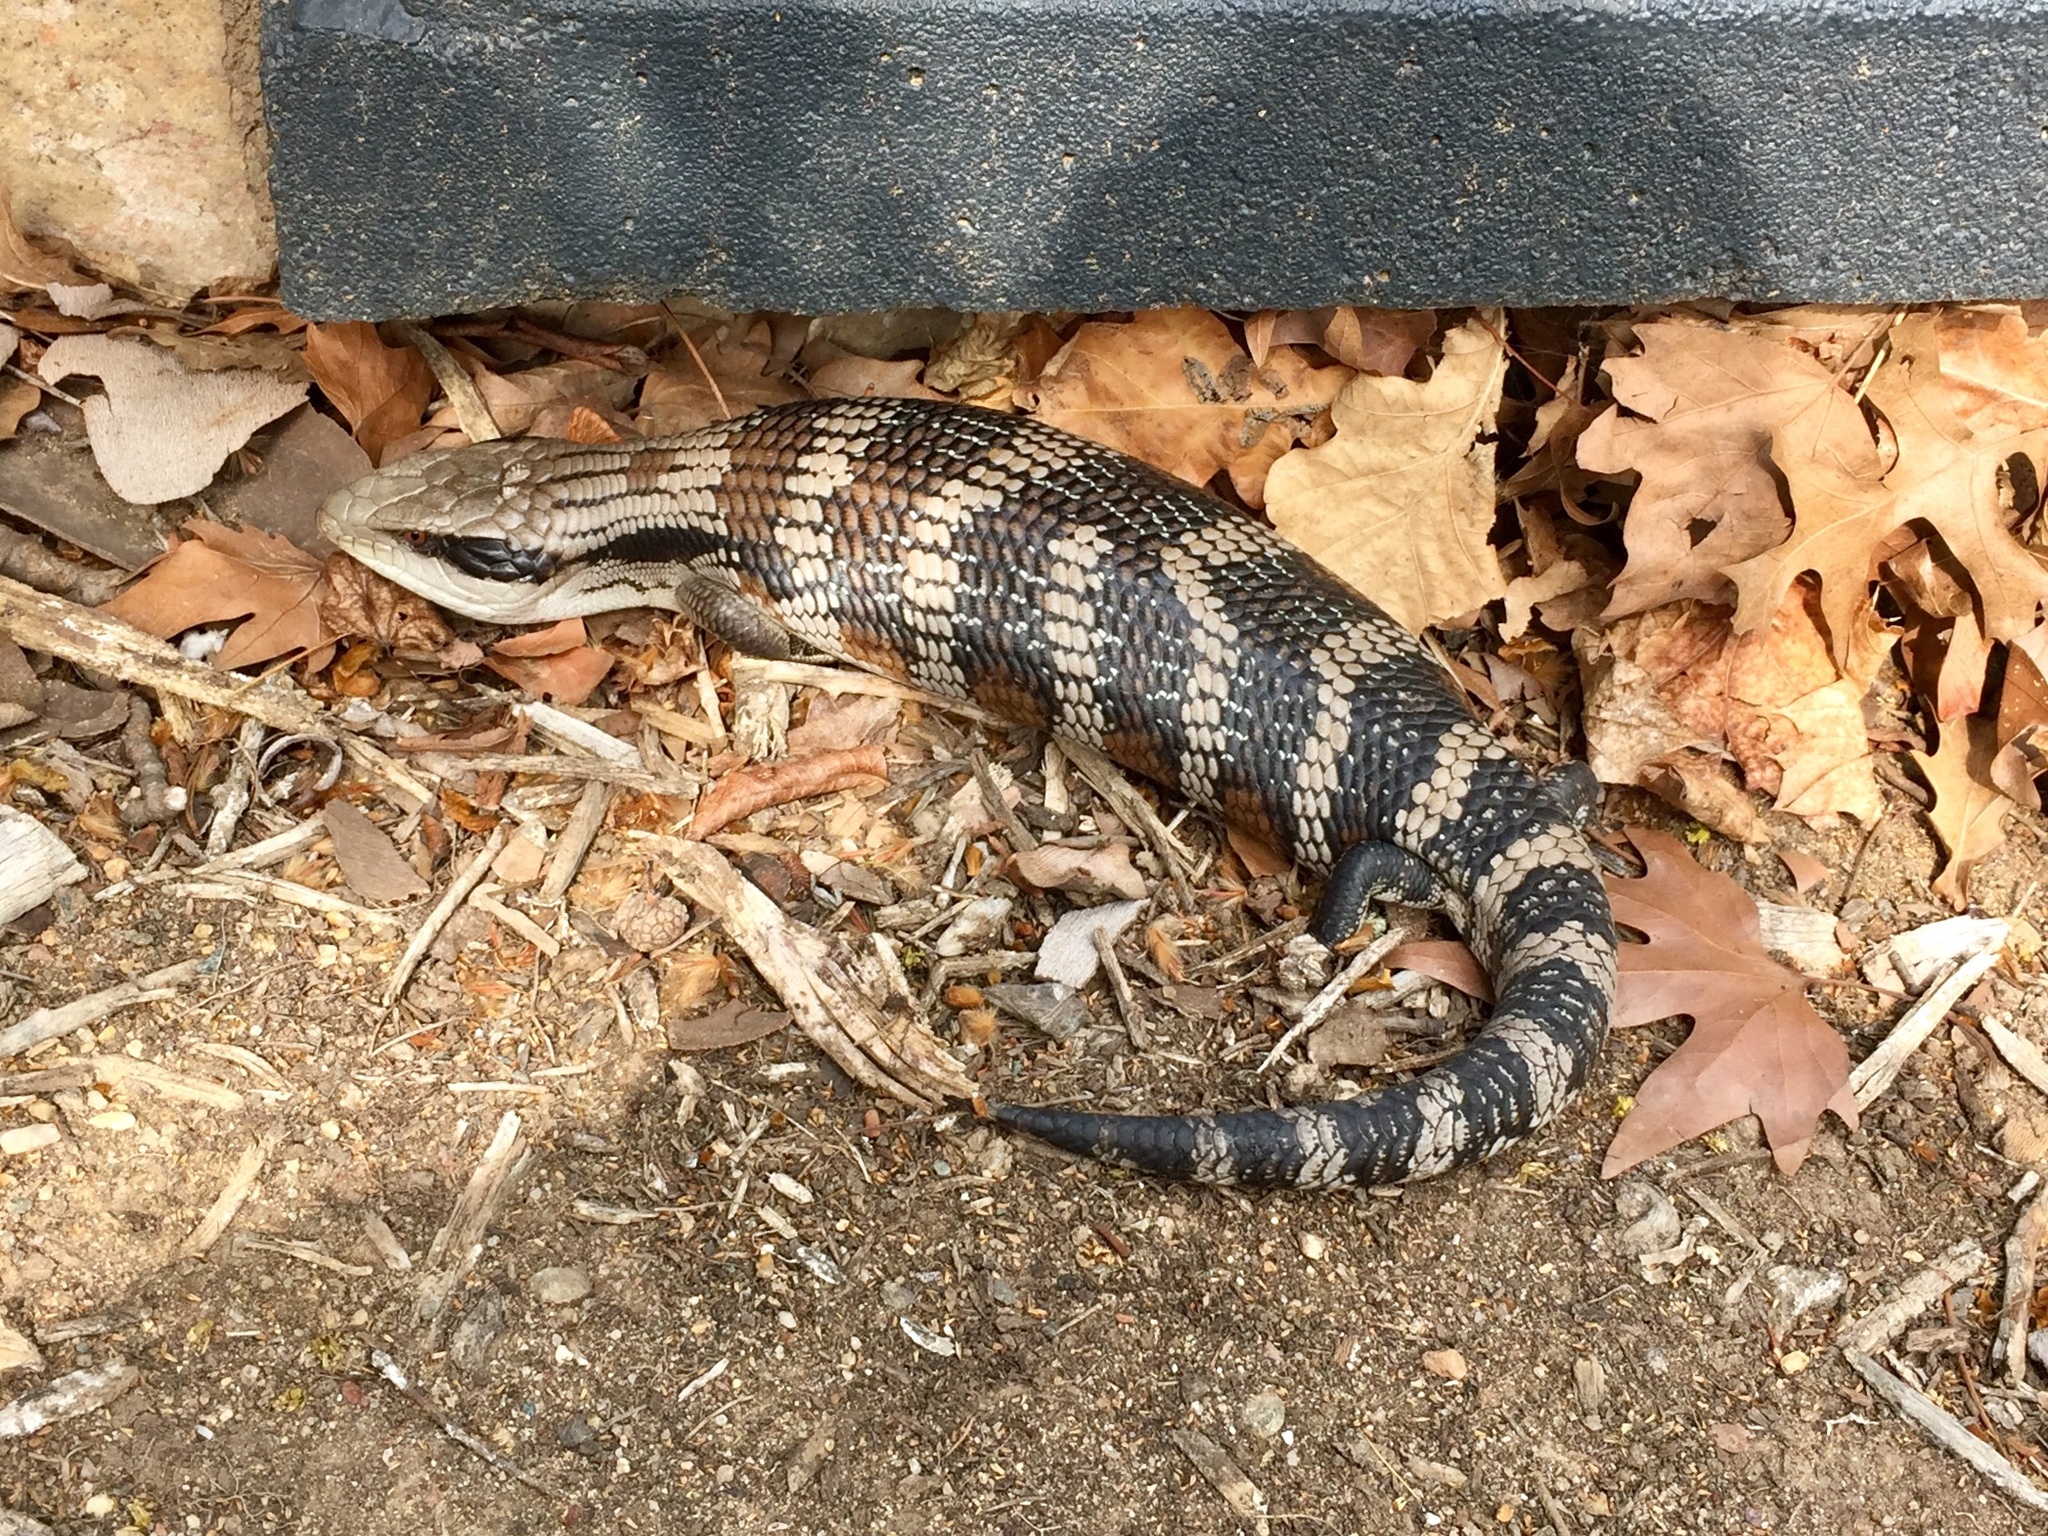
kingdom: Animalia
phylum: Chordata
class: Squamata
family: Scincidae
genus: Tiliqua
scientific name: Tiliqua scincoides
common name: Common bluetongue
